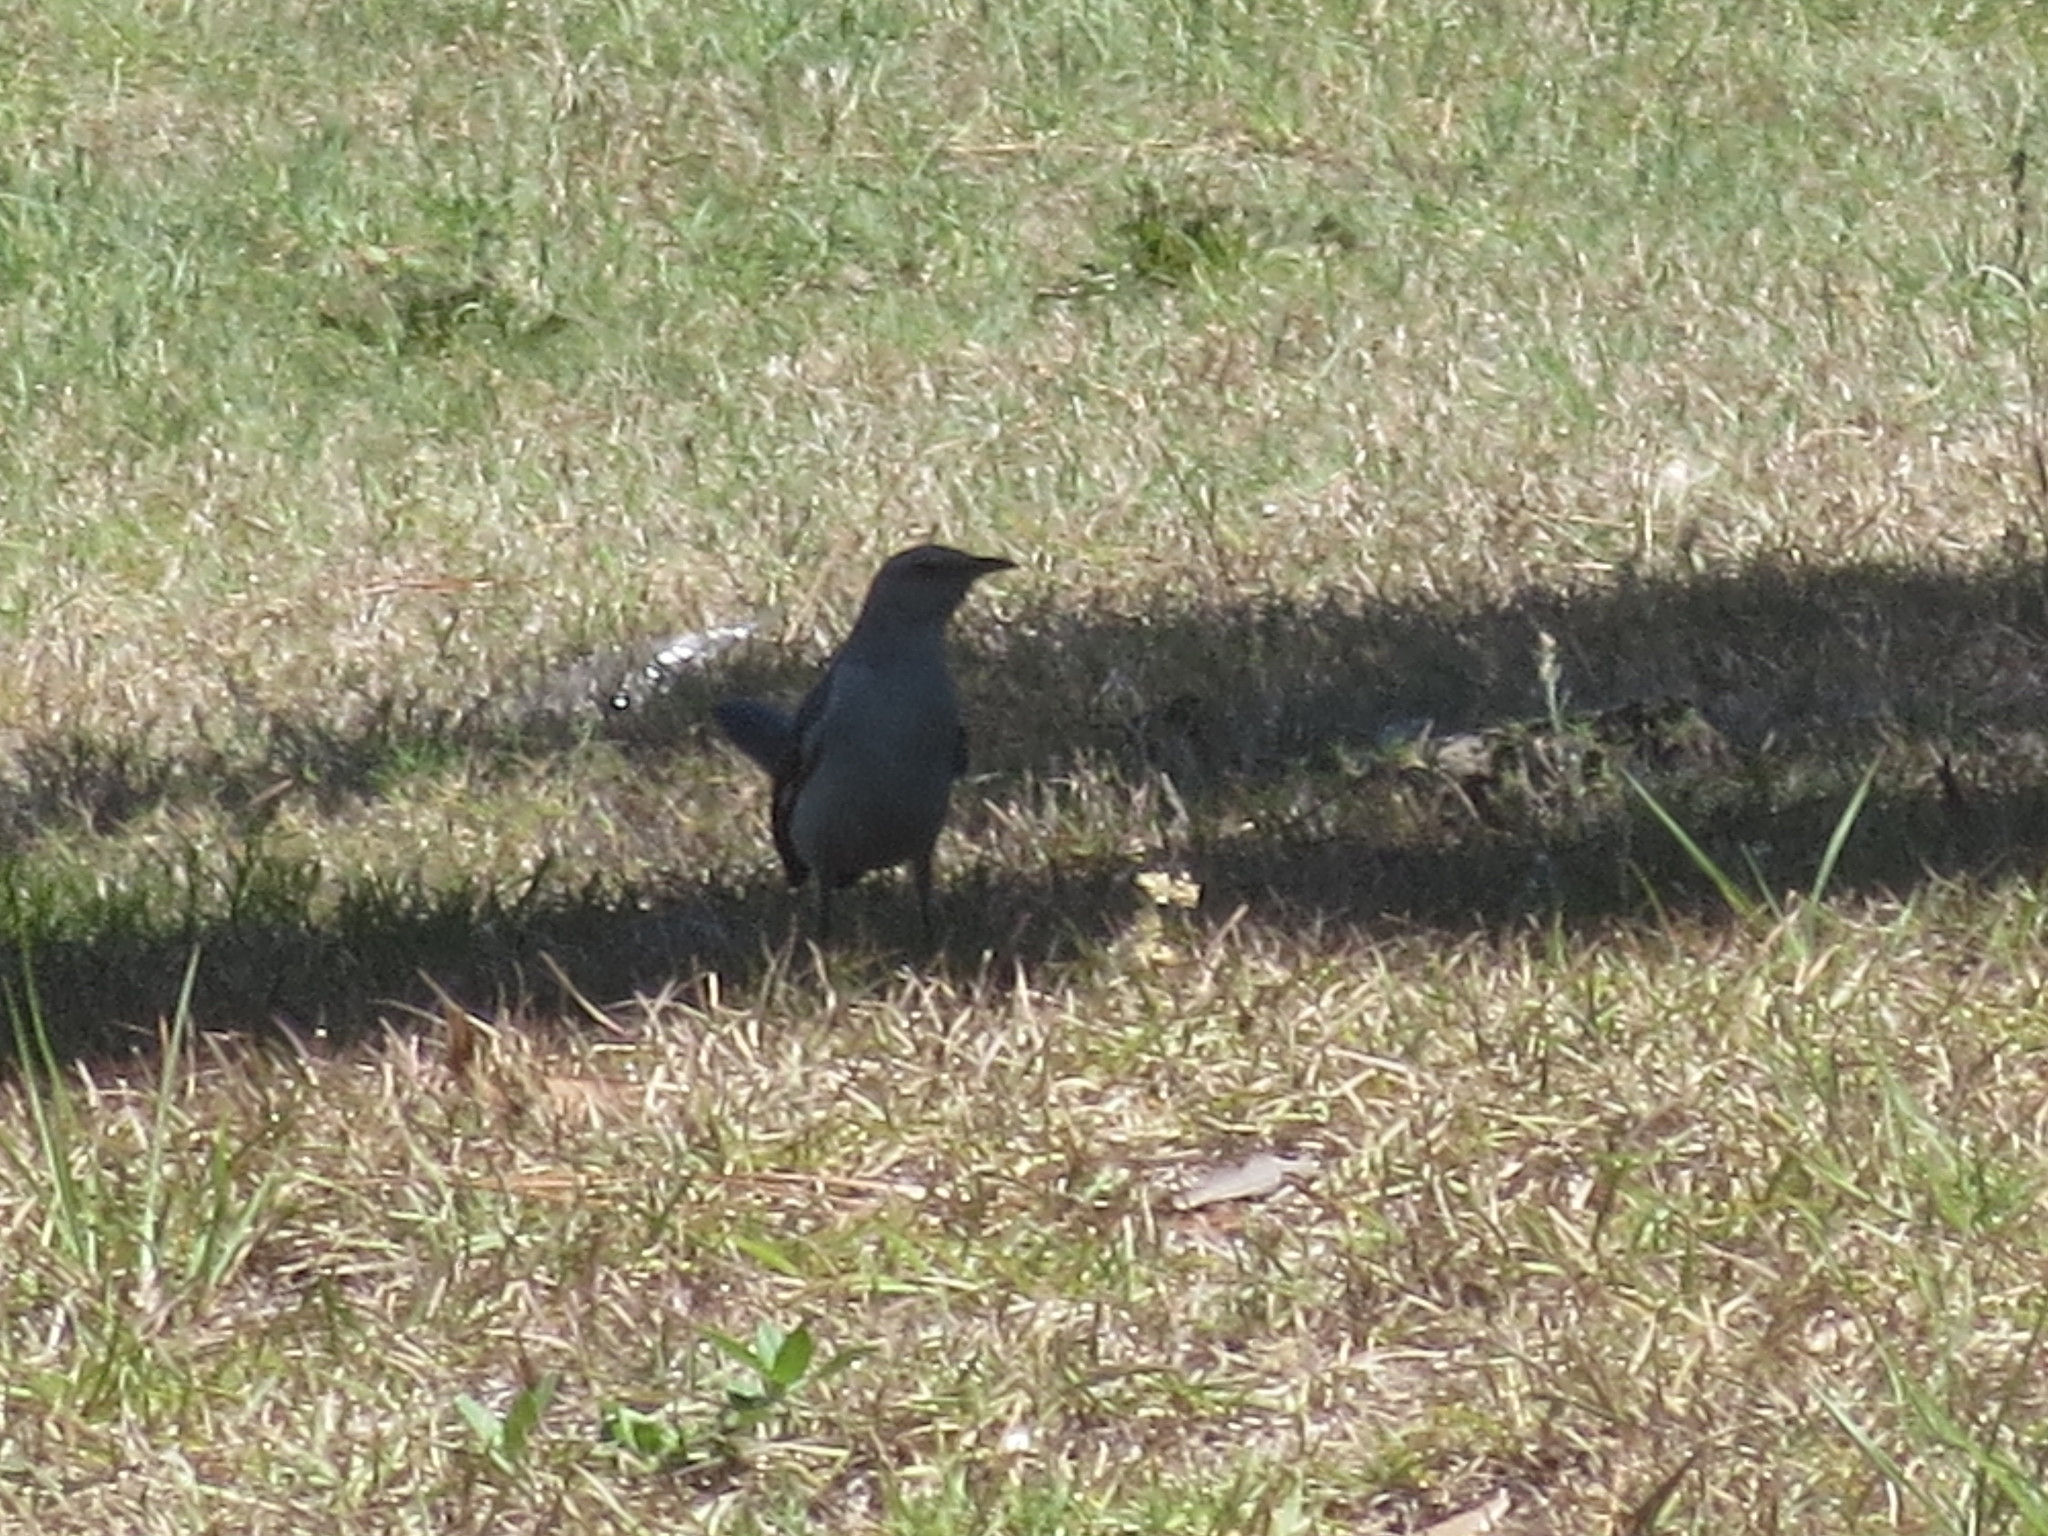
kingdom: Animalia
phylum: Chordata
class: Aves
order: Passeriformes
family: Mimidae
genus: Mimus
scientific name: Mimus polyglottos
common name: Northern mockingbird
